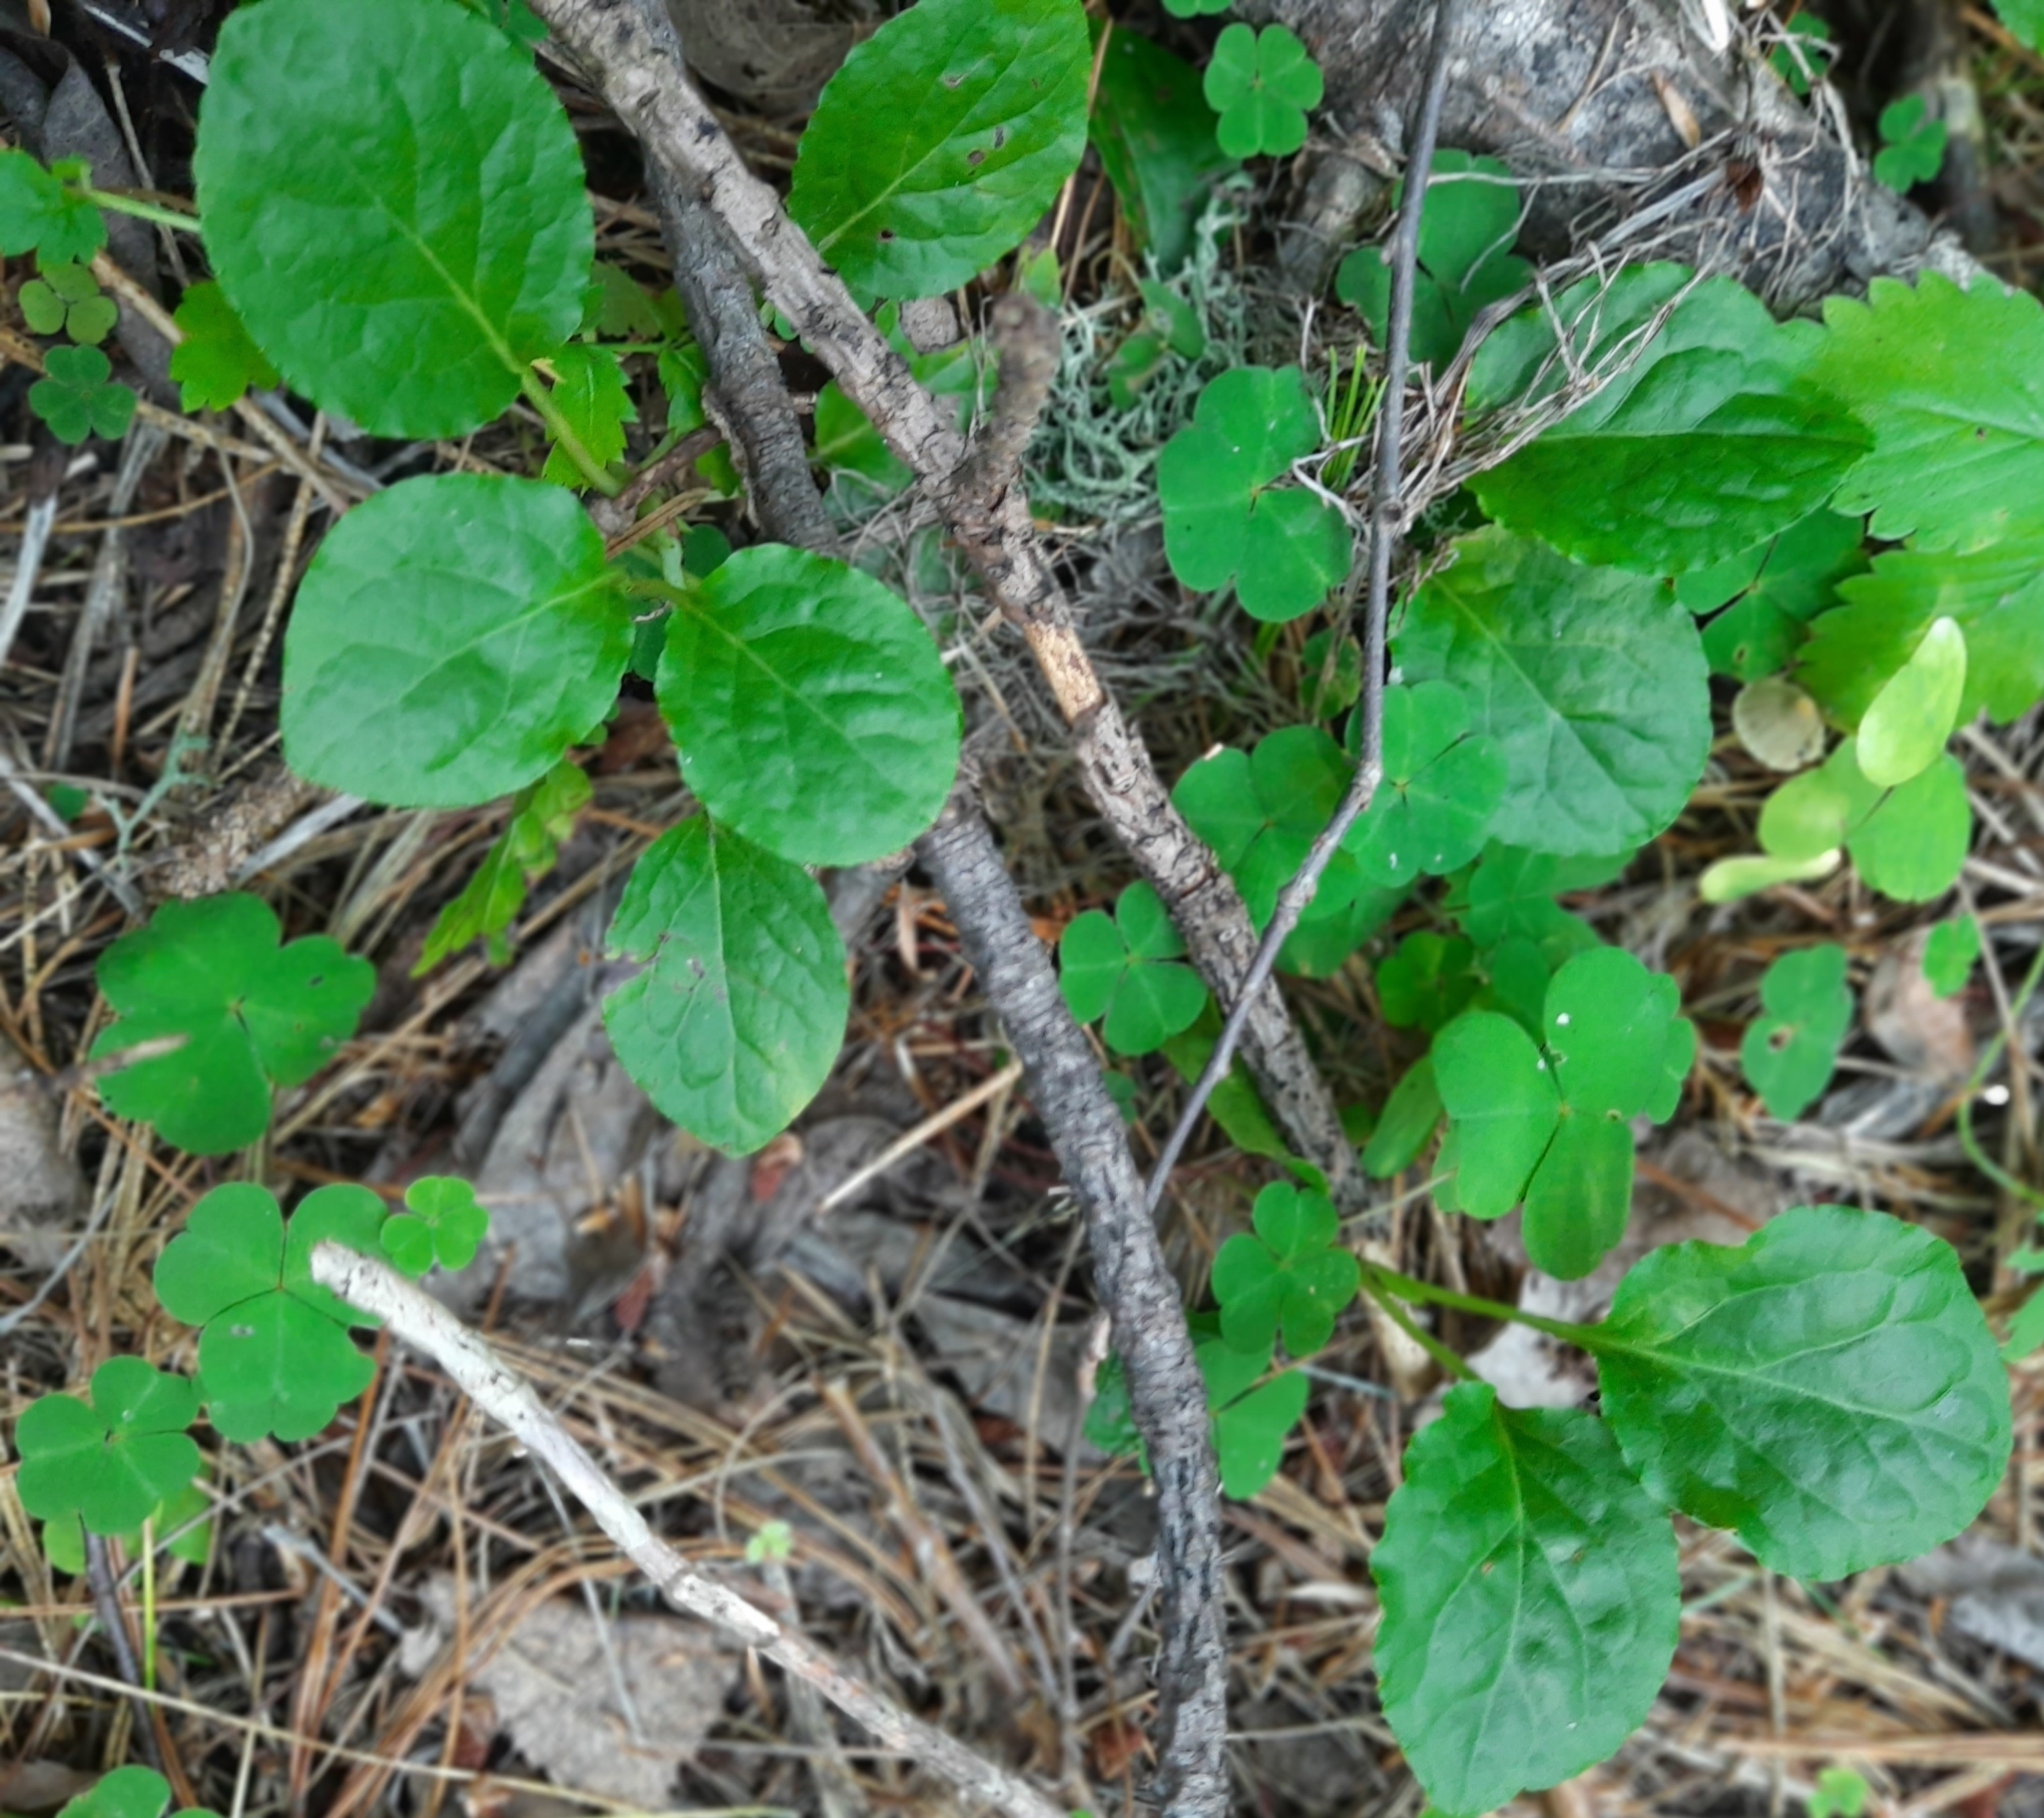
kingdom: Plantae
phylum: Tracheophyta
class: Magnoliopsida
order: Ericales
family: Ericaceae
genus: Pyrola
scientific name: Pyrola minor
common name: Common wintergreen
